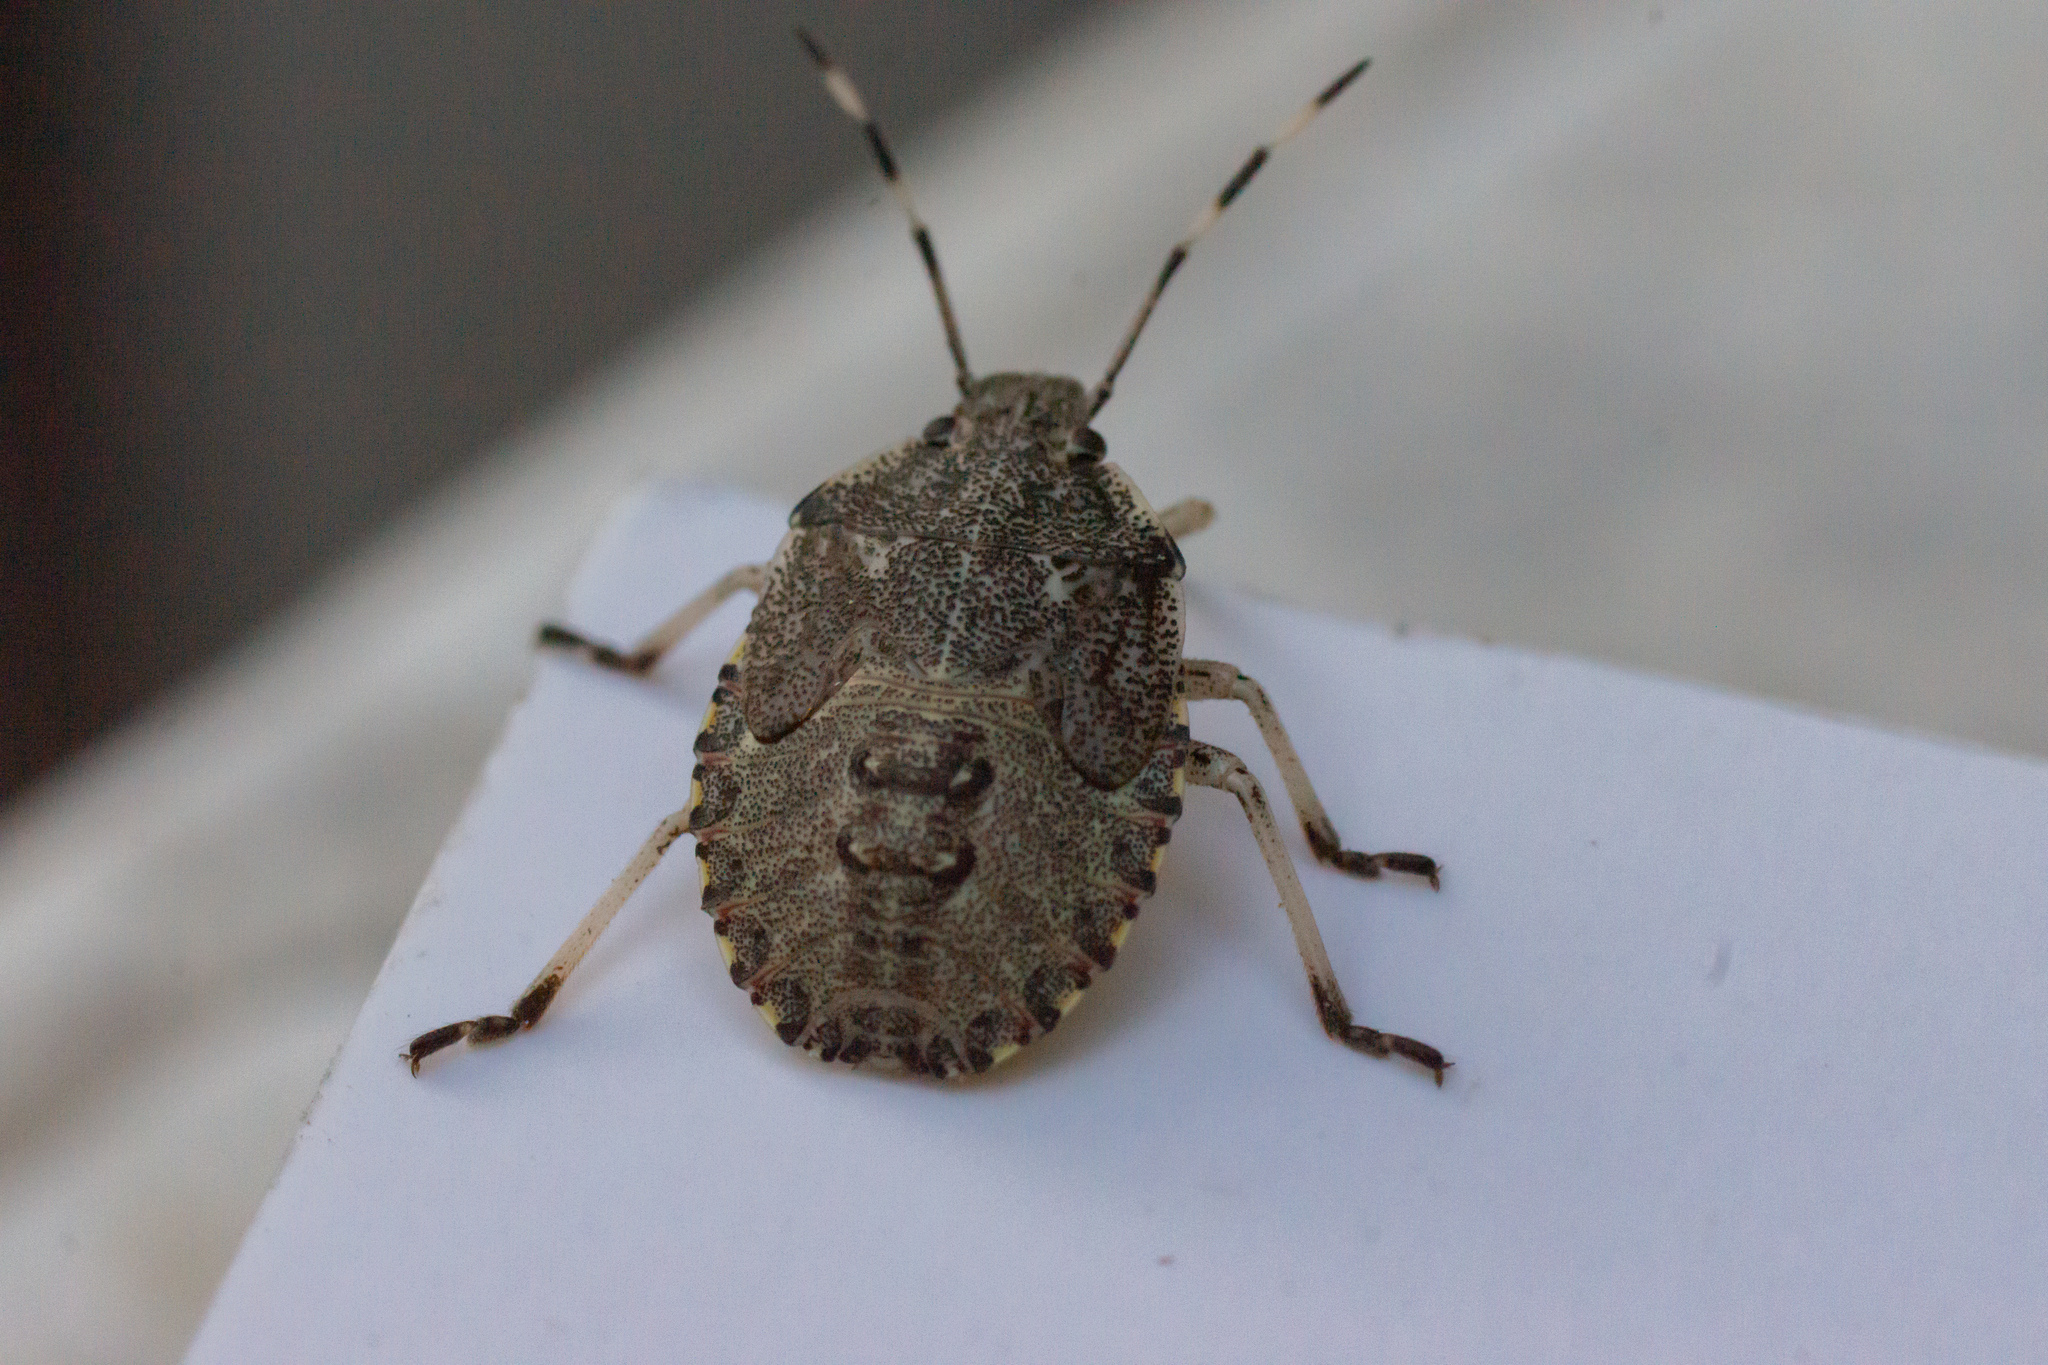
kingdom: Animalia
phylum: Arthropoda
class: Insecta
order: Hemiptera
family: Pentatomidae
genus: Rhaphigaster
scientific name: Rhaphigaster nebulosa
